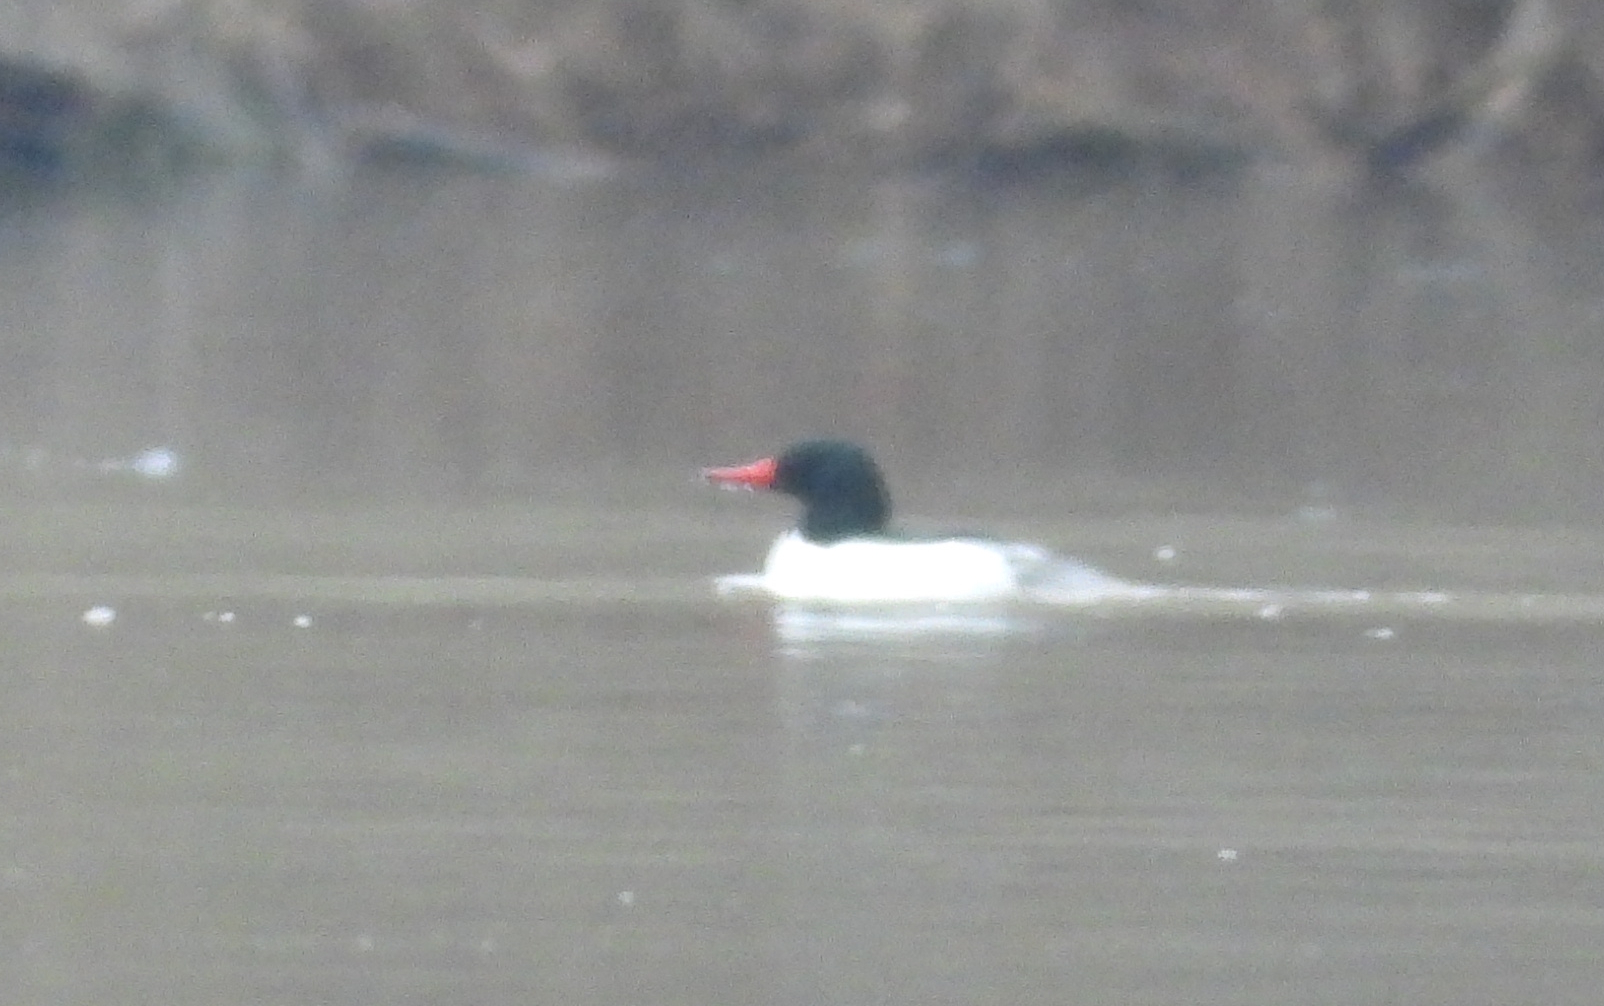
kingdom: Animalia
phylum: Chordata
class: Aves
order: Anseriformes
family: Anatidae
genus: Mergus
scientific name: Mergus merganser
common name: Common merganser
